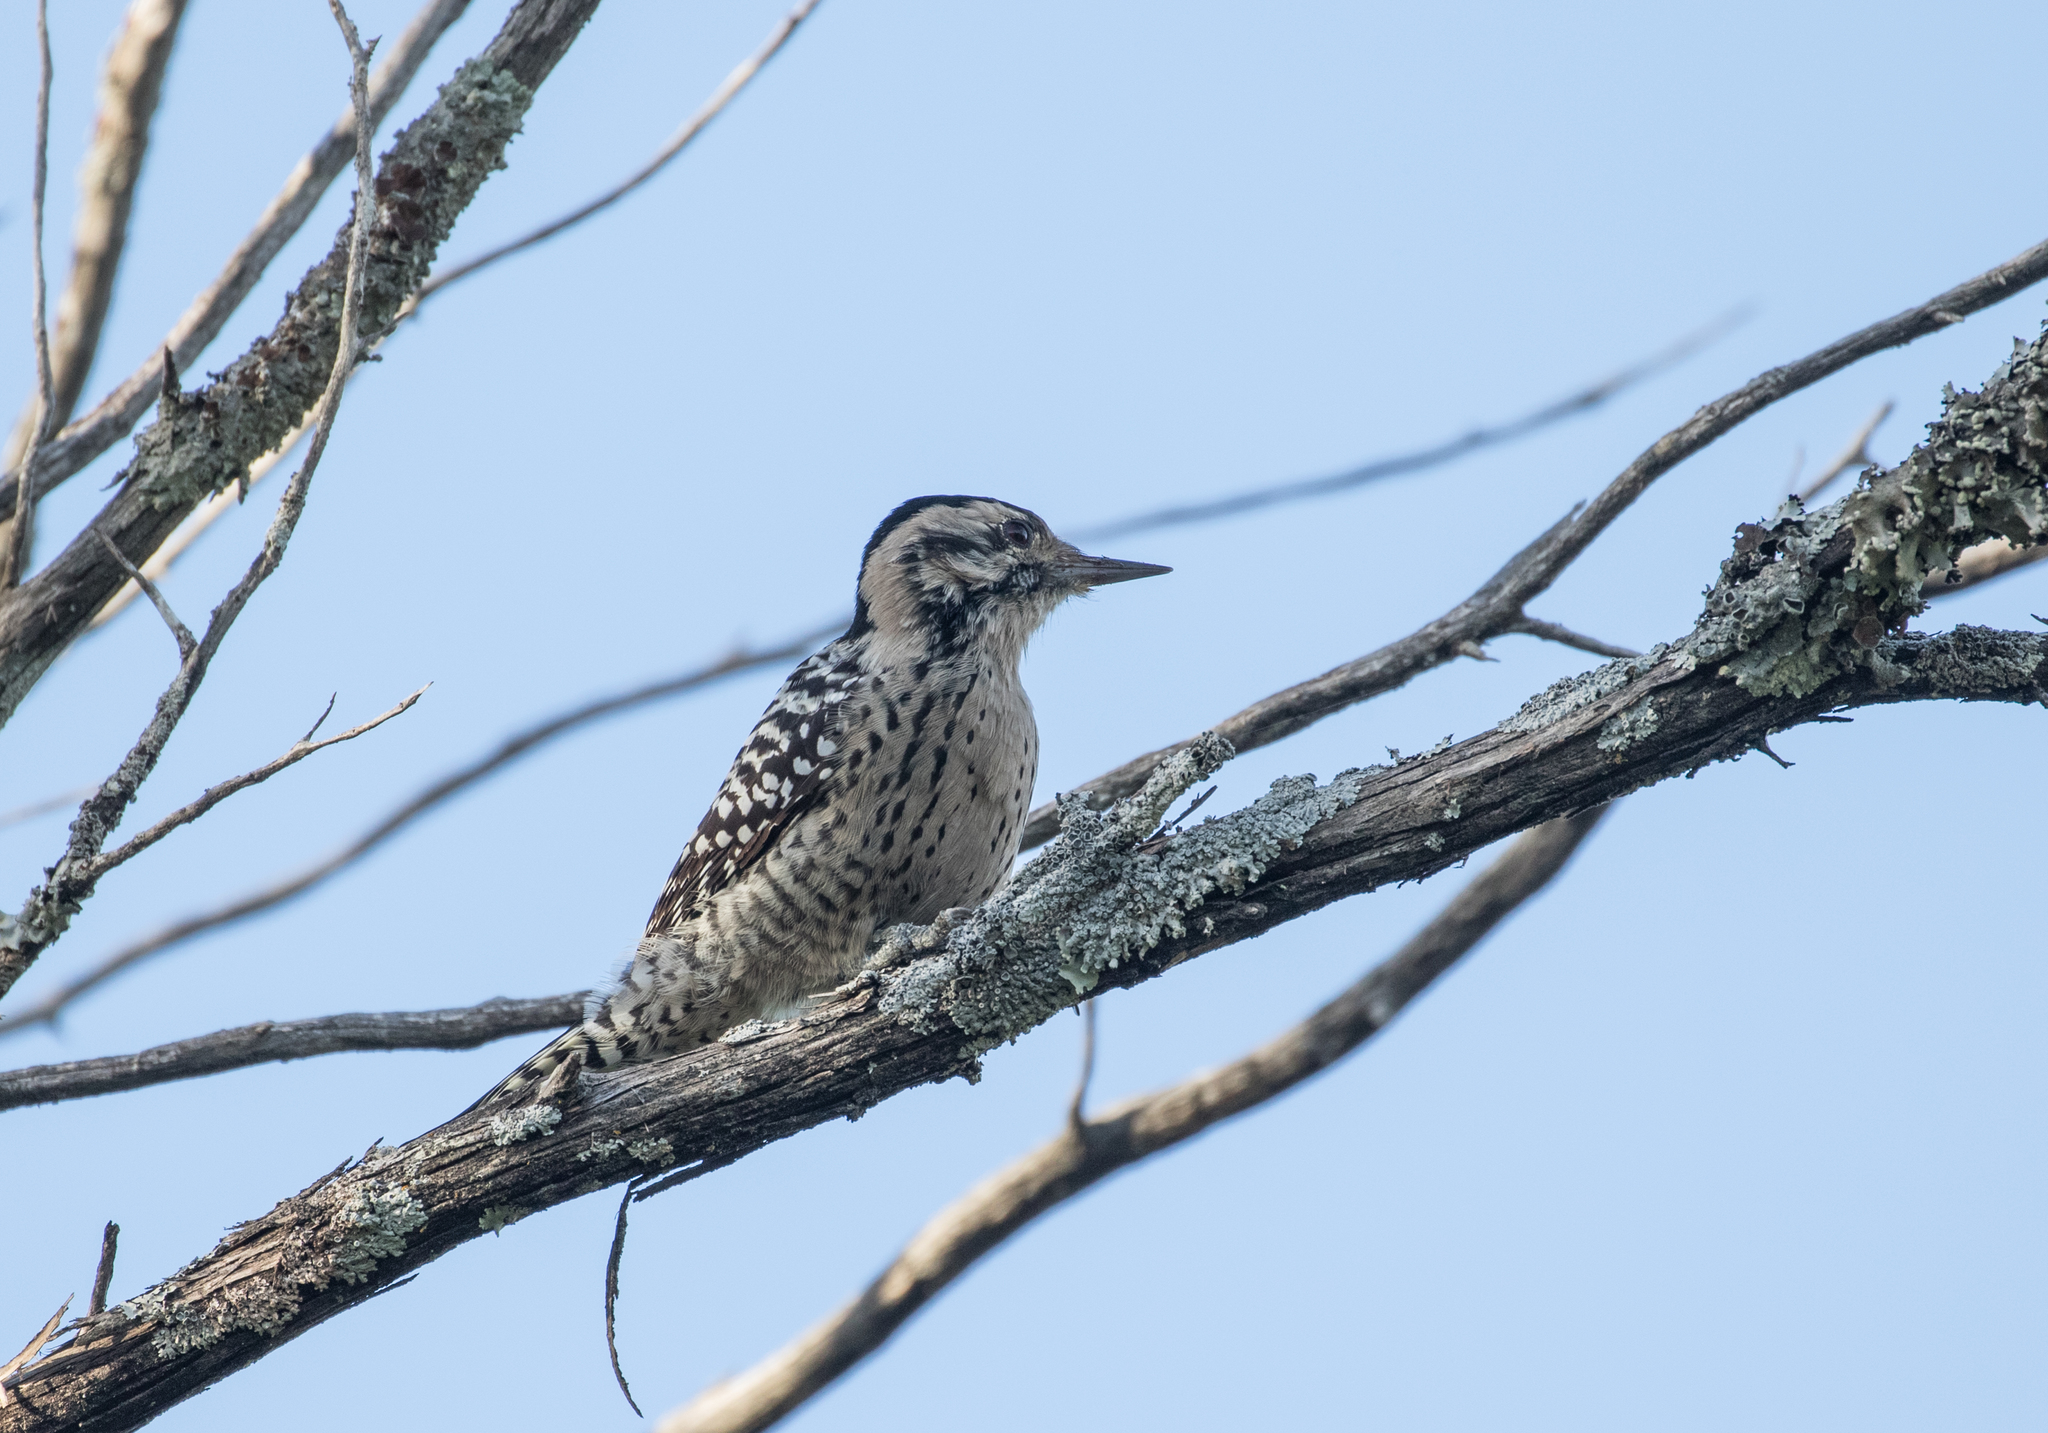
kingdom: Animalia
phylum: Chordata
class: Aves
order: Piciformes
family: Picidae
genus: Dryobates
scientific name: Dryobates scalaris
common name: Ladder-backed woodpecker
